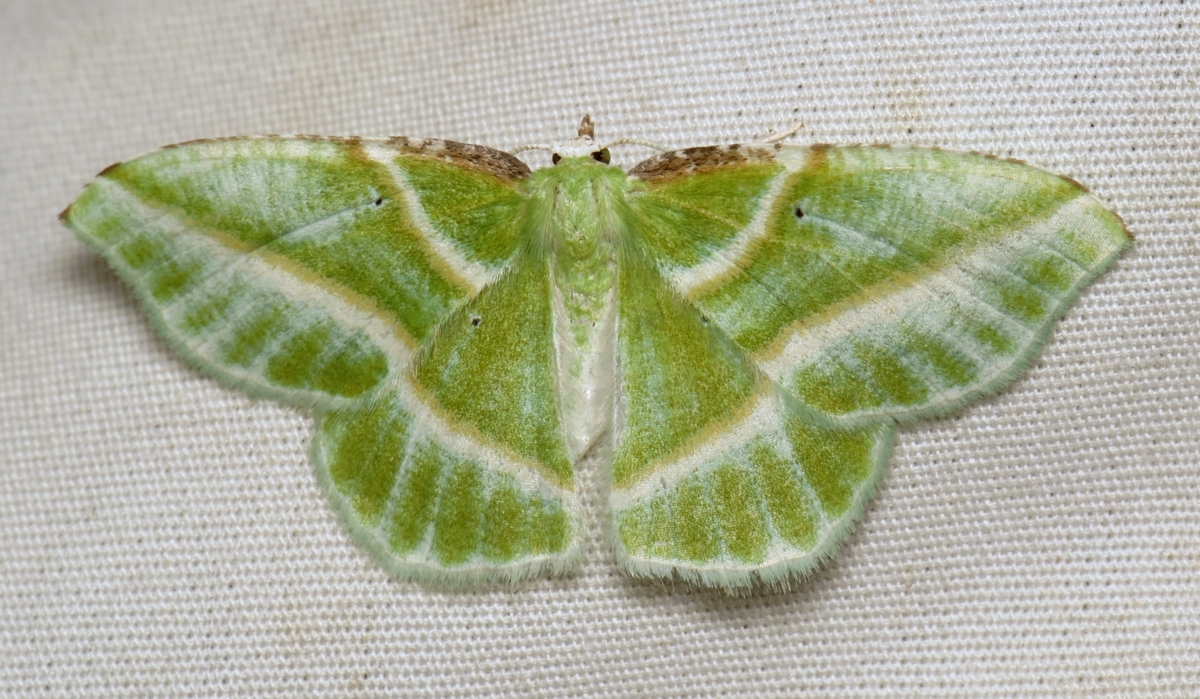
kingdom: Animalia
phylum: Arthropoda
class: Insecta
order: Lepidoptera
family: Geometridae
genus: Dichorda
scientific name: Dichorda iridaria
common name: Showy emerald
